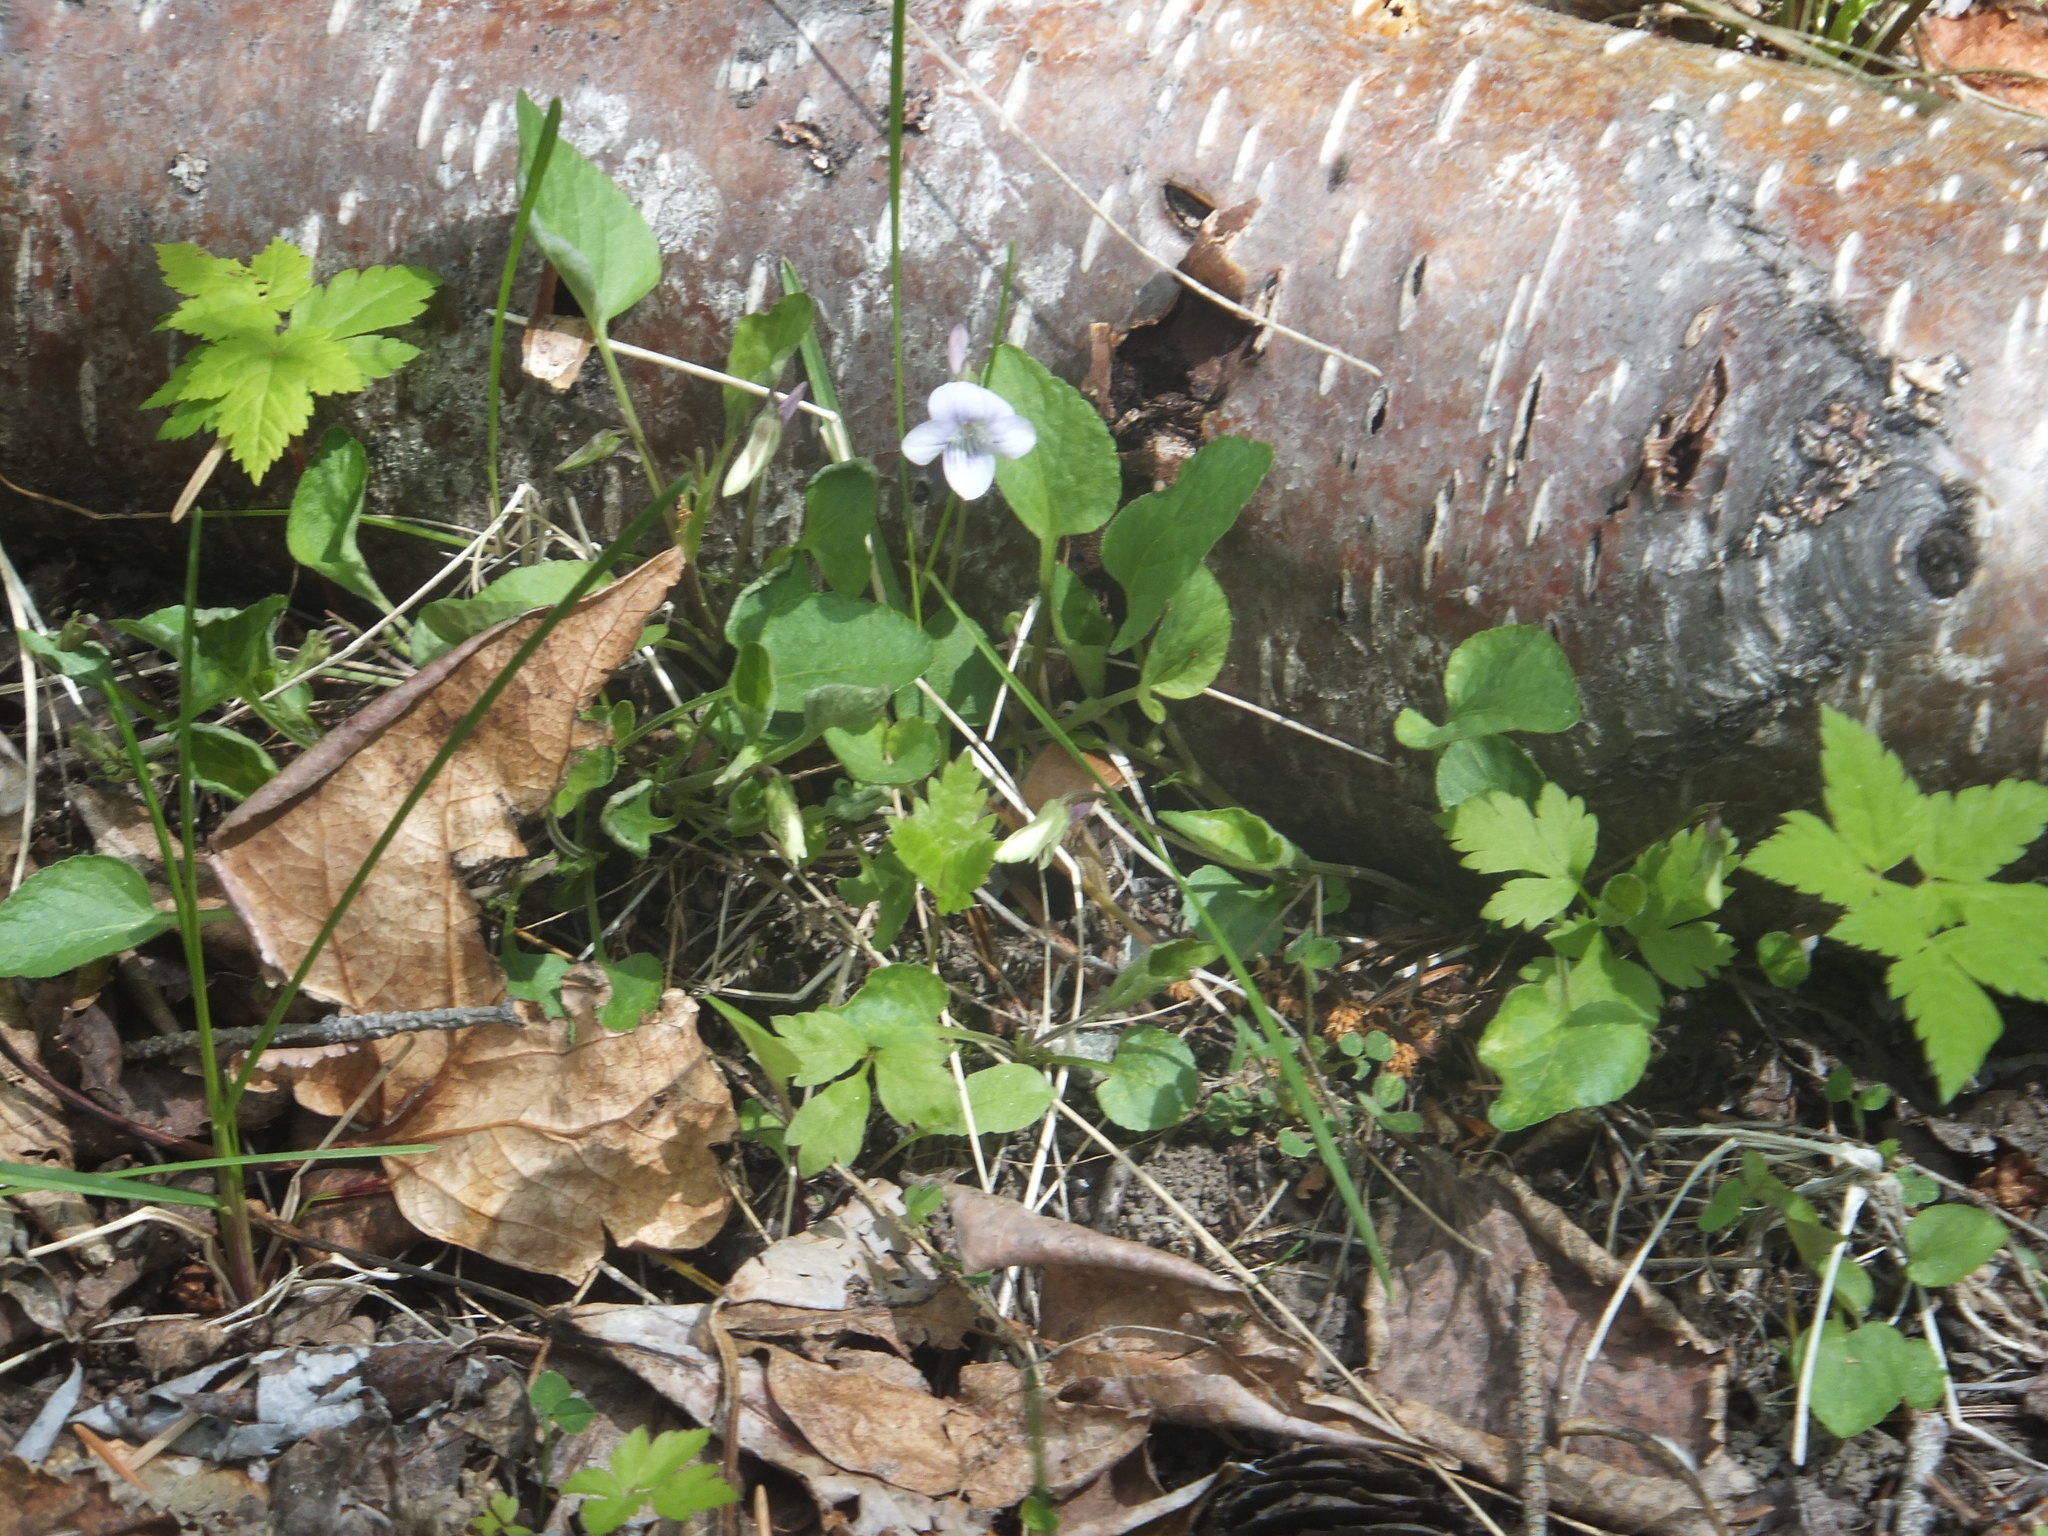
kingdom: Plantae
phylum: Tracheophyta
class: Magnoliopsida
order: Malpighiales
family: Violaceae
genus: Viola
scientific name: Viola adunca
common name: Sand violet
